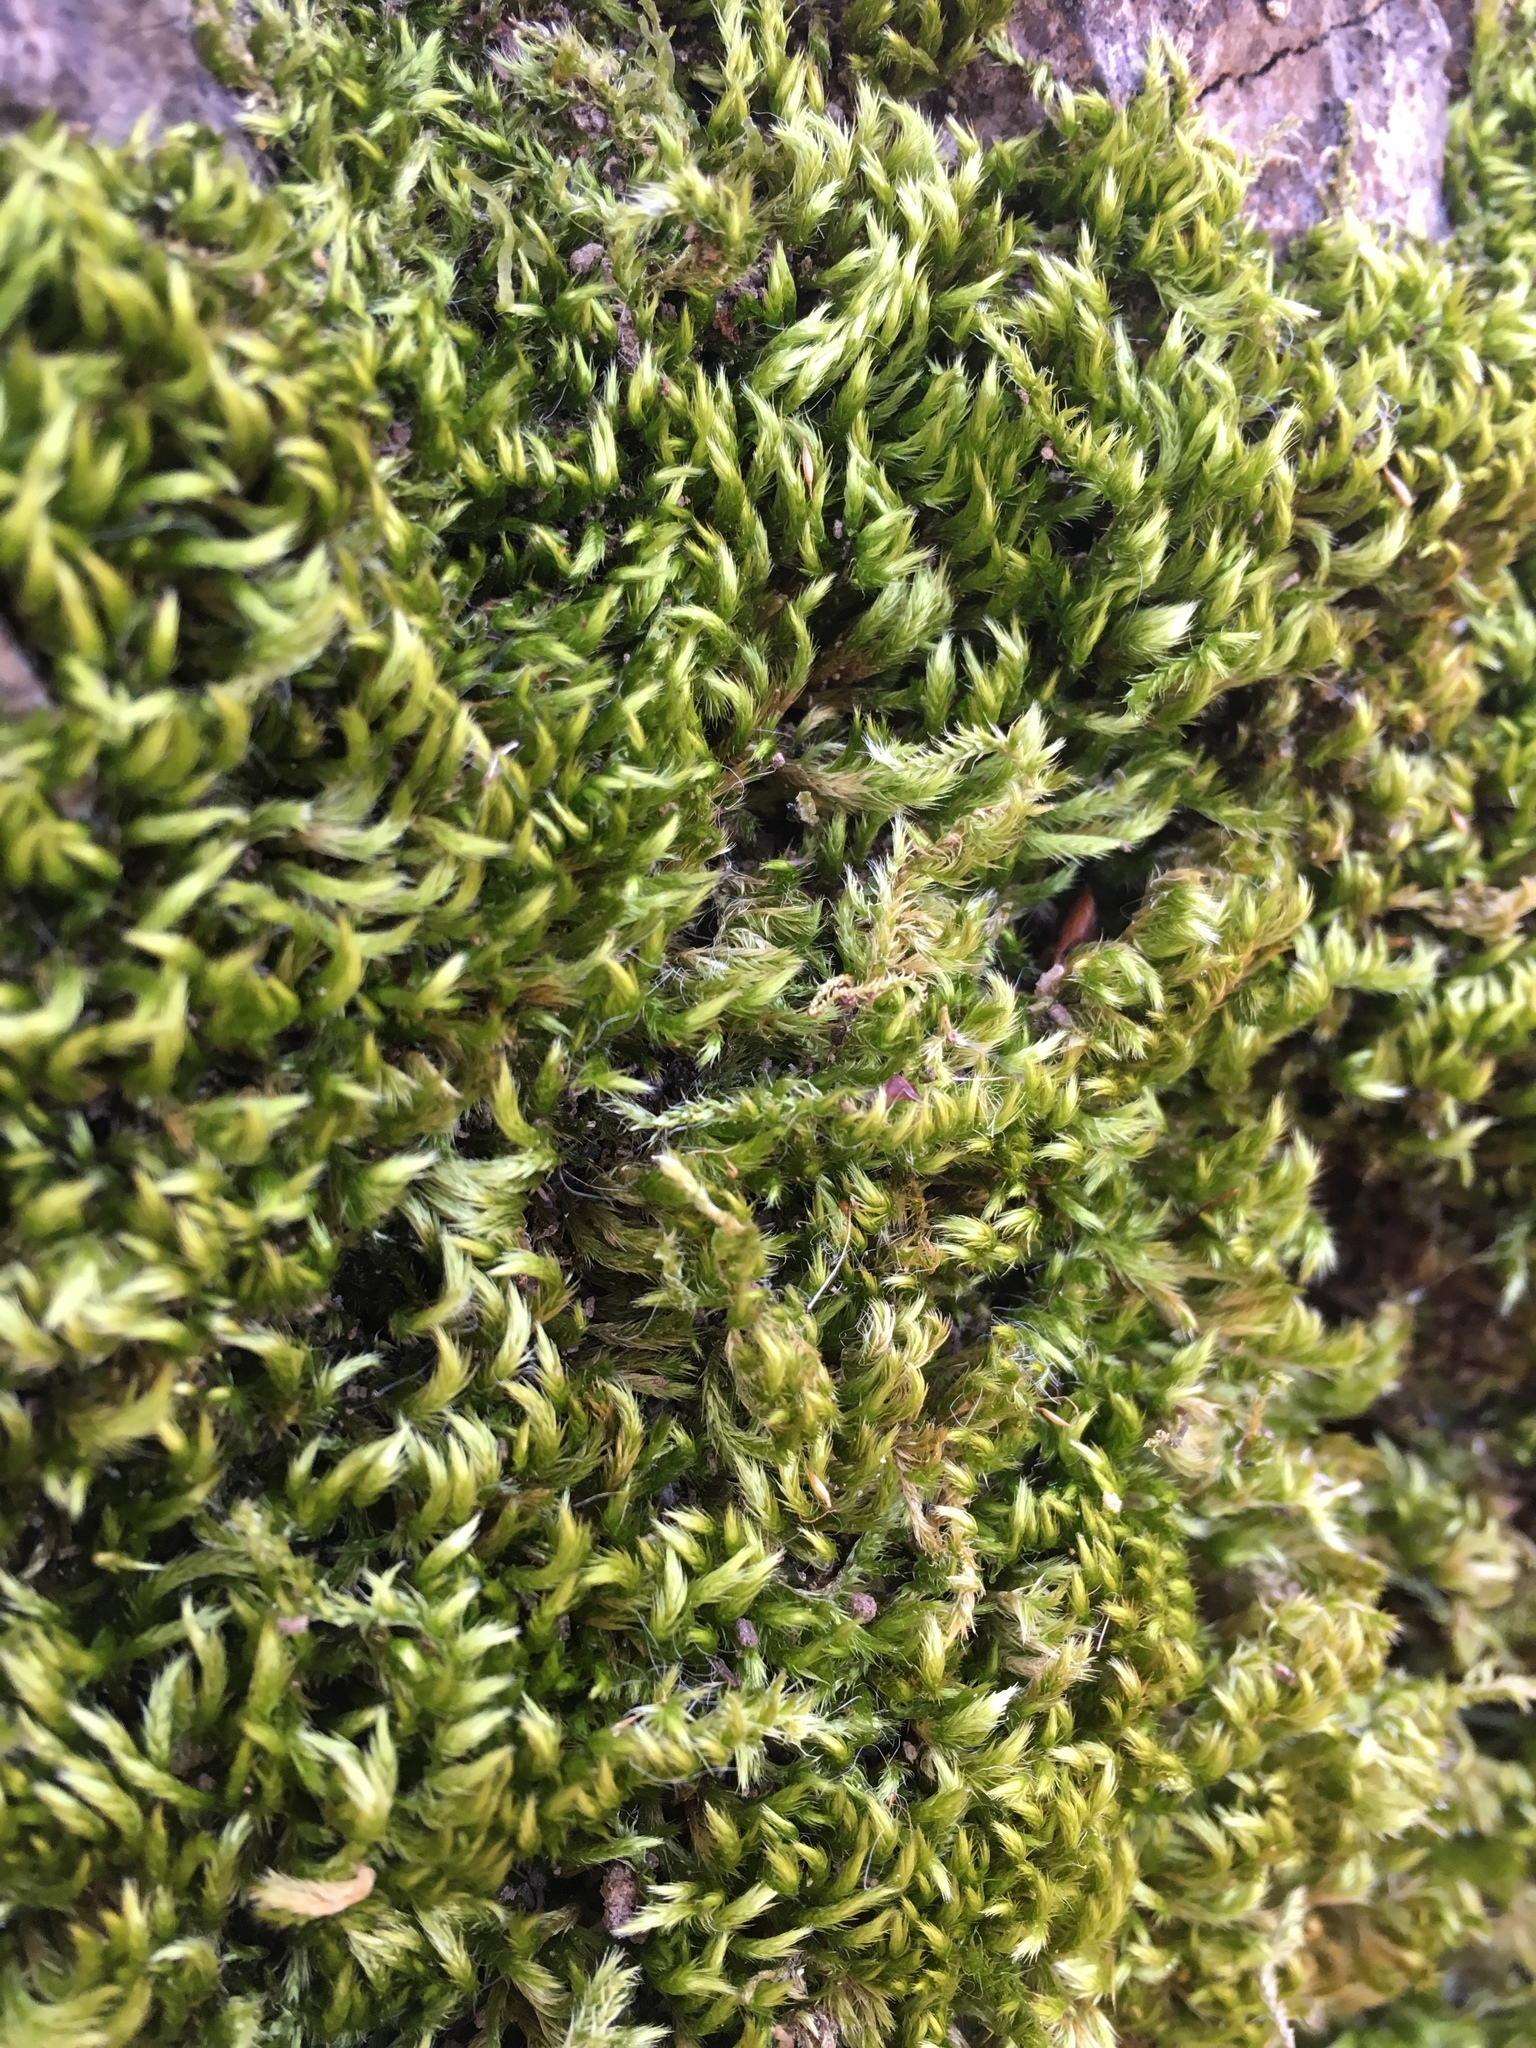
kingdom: Plantae
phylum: Bryophyta
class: Bryopsida
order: Hypnales
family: Brachytheciaceae
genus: Homalothecium
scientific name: Homalothecium sericeum
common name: Silky wall feather-moss
